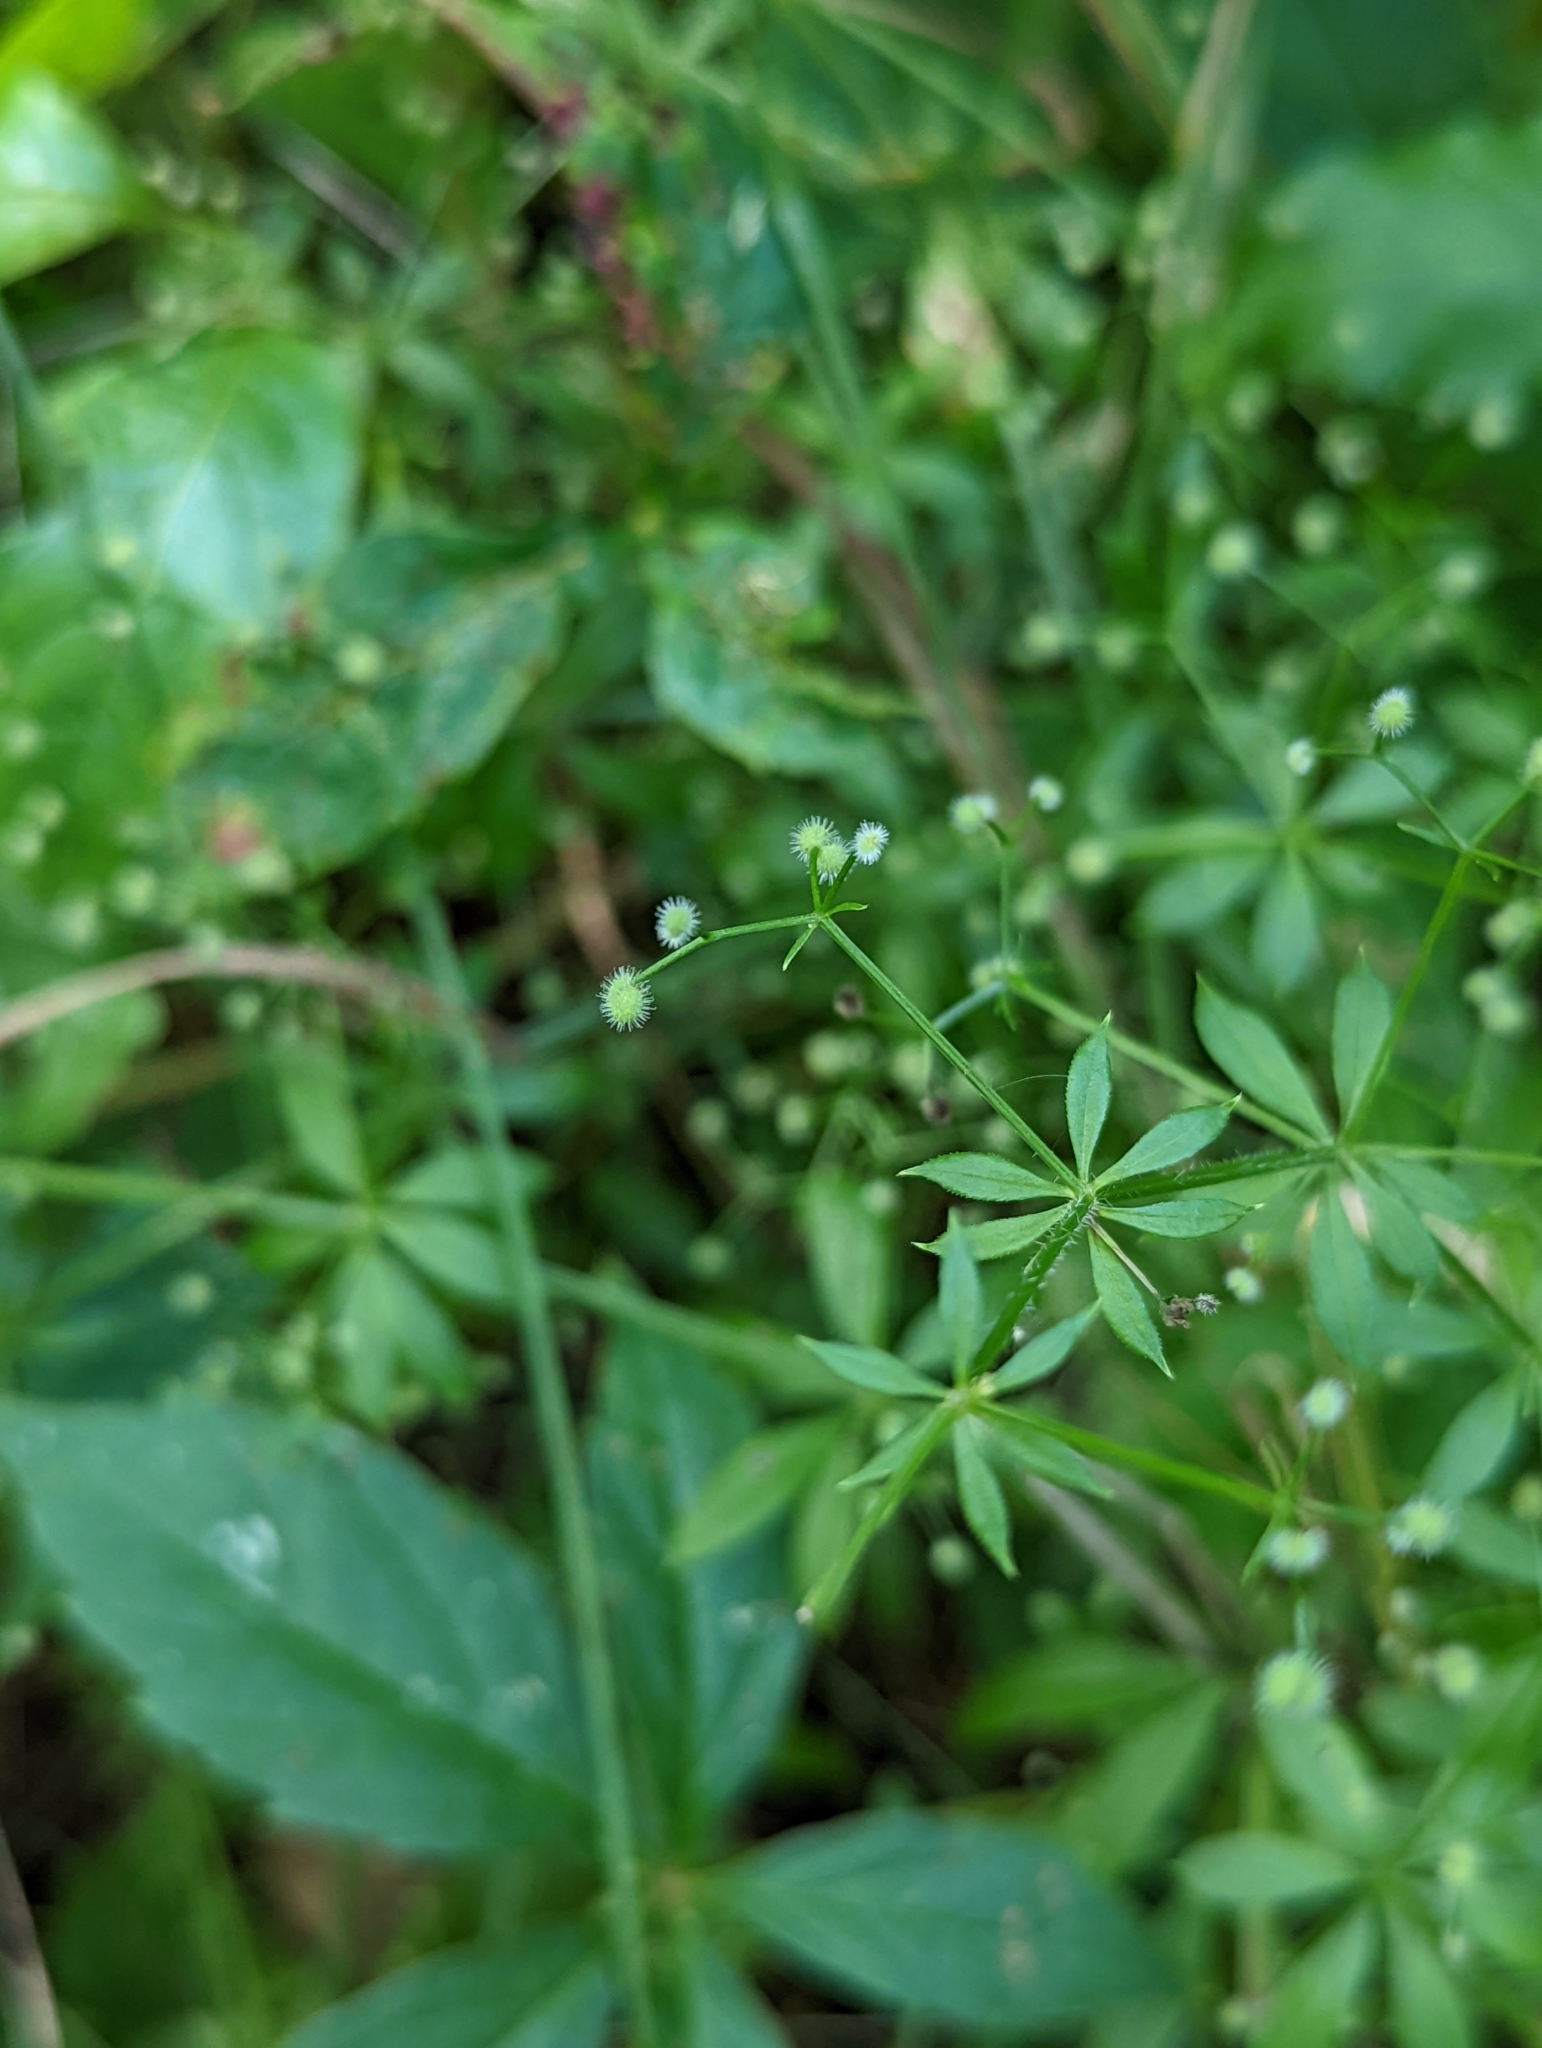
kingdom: Plantae
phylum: Tracheophyta
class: Magnoliopsida
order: Gentianales
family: Rubiaceae
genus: Galium
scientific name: Galium triflorum
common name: Fragrant bedstraw
